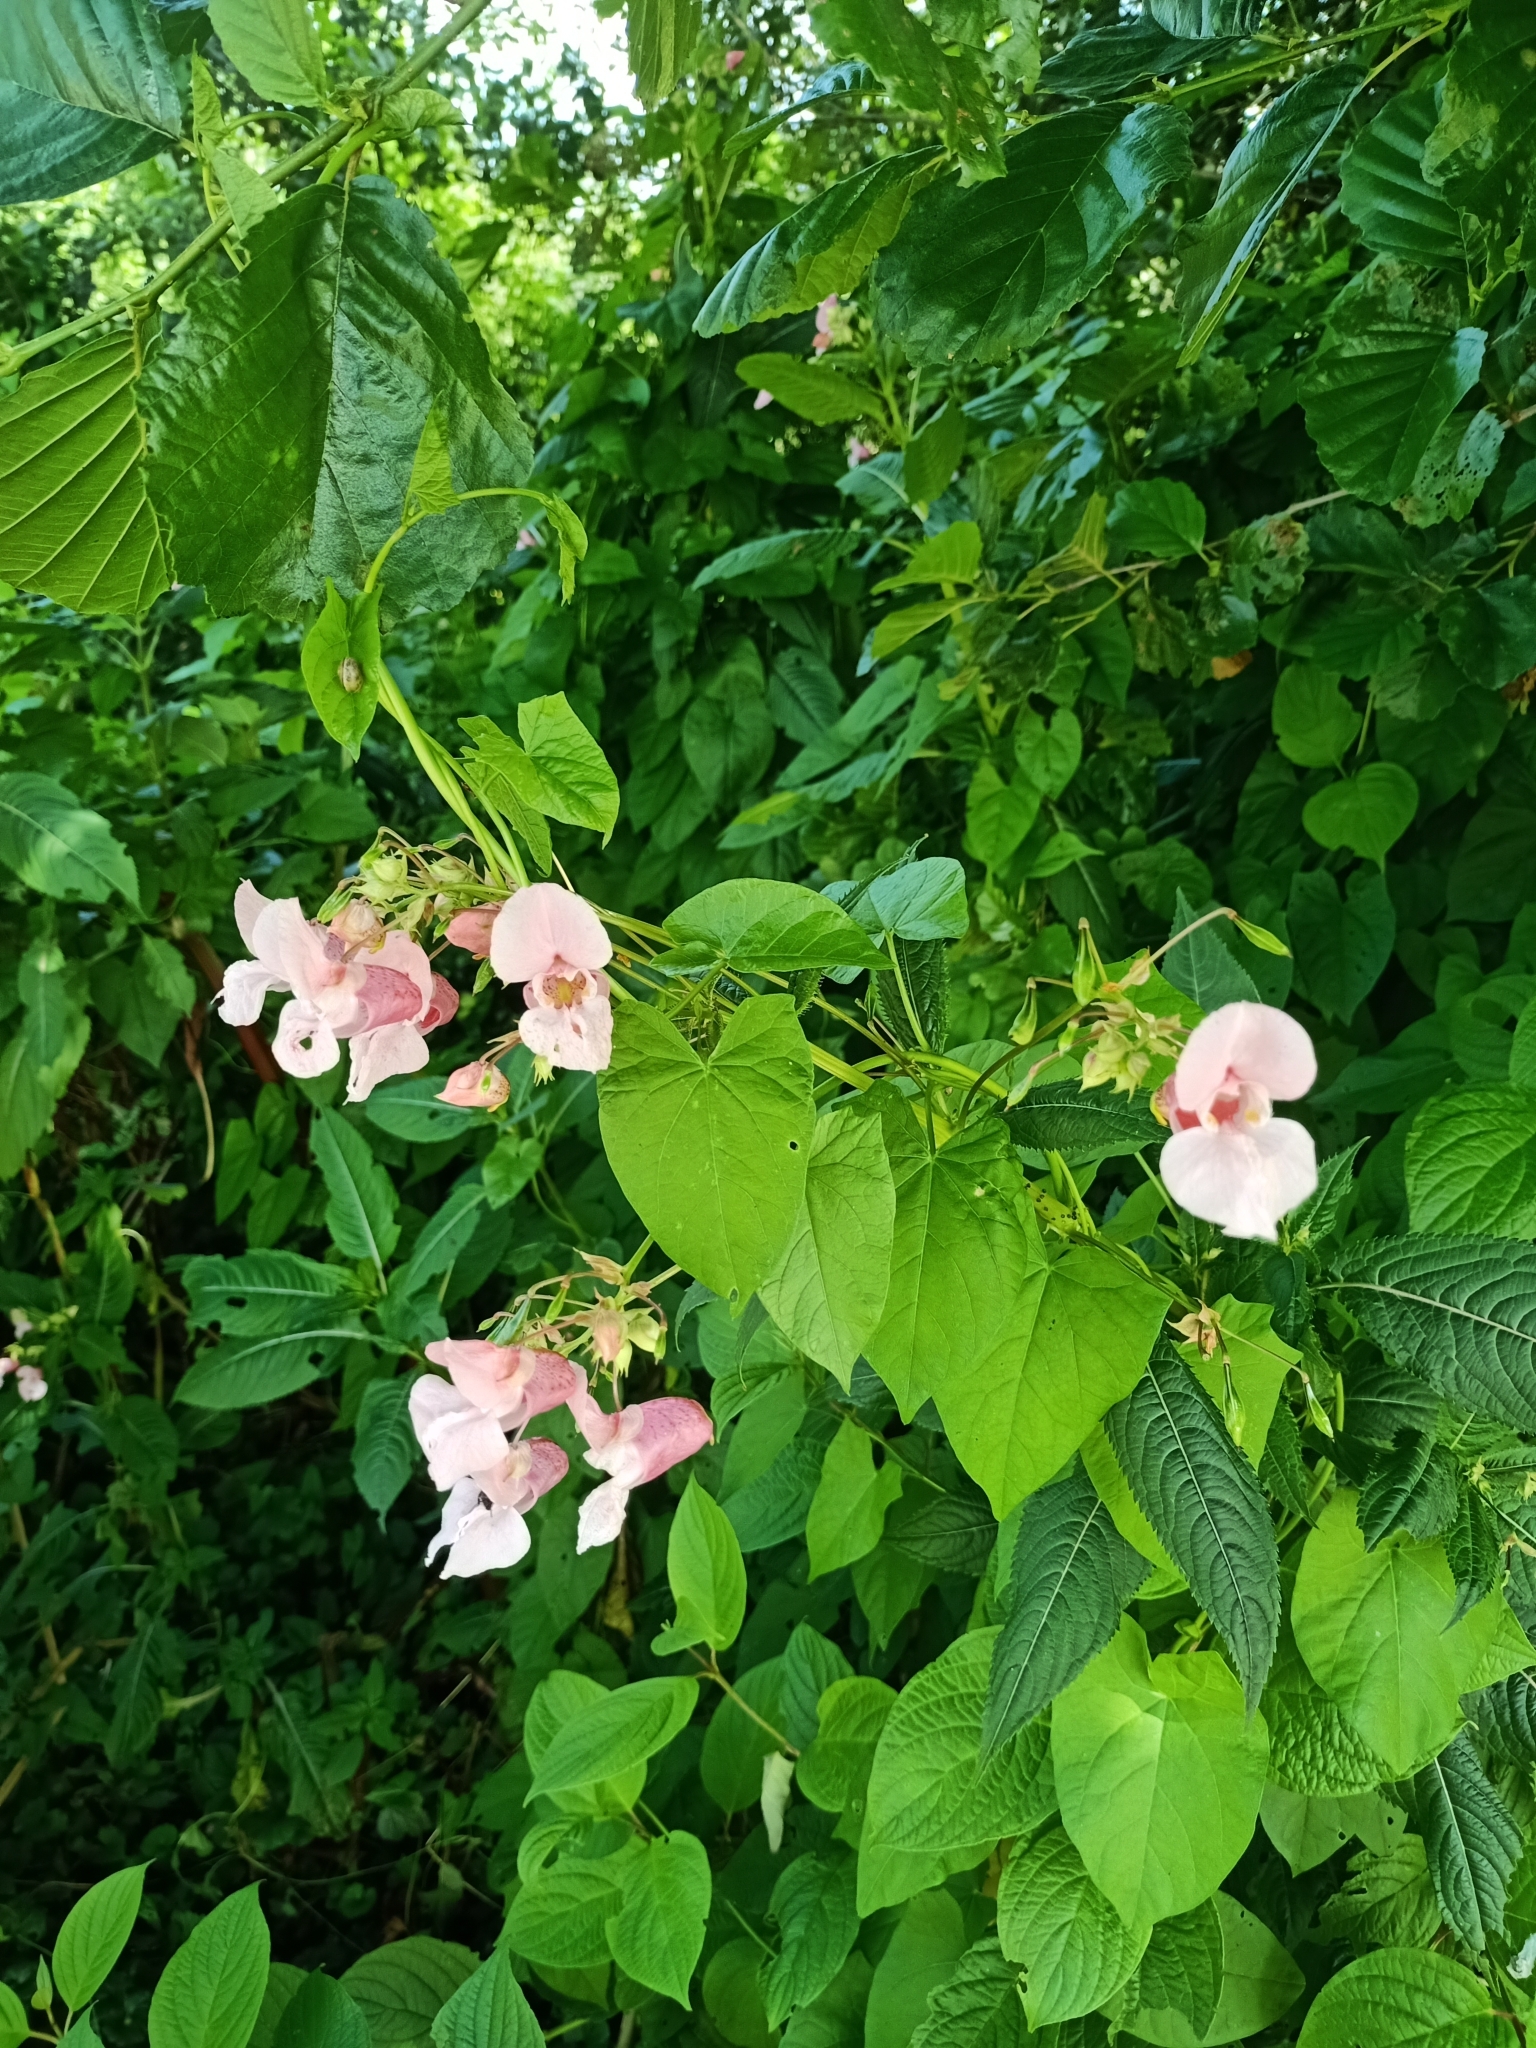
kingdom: Plantae
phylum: Tracheophyta
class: Magnoliopsida
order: Ericales
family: Balsaminaceae
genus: Impatiens
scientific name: Impatiens glandulifera
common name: Himalayan balsam
